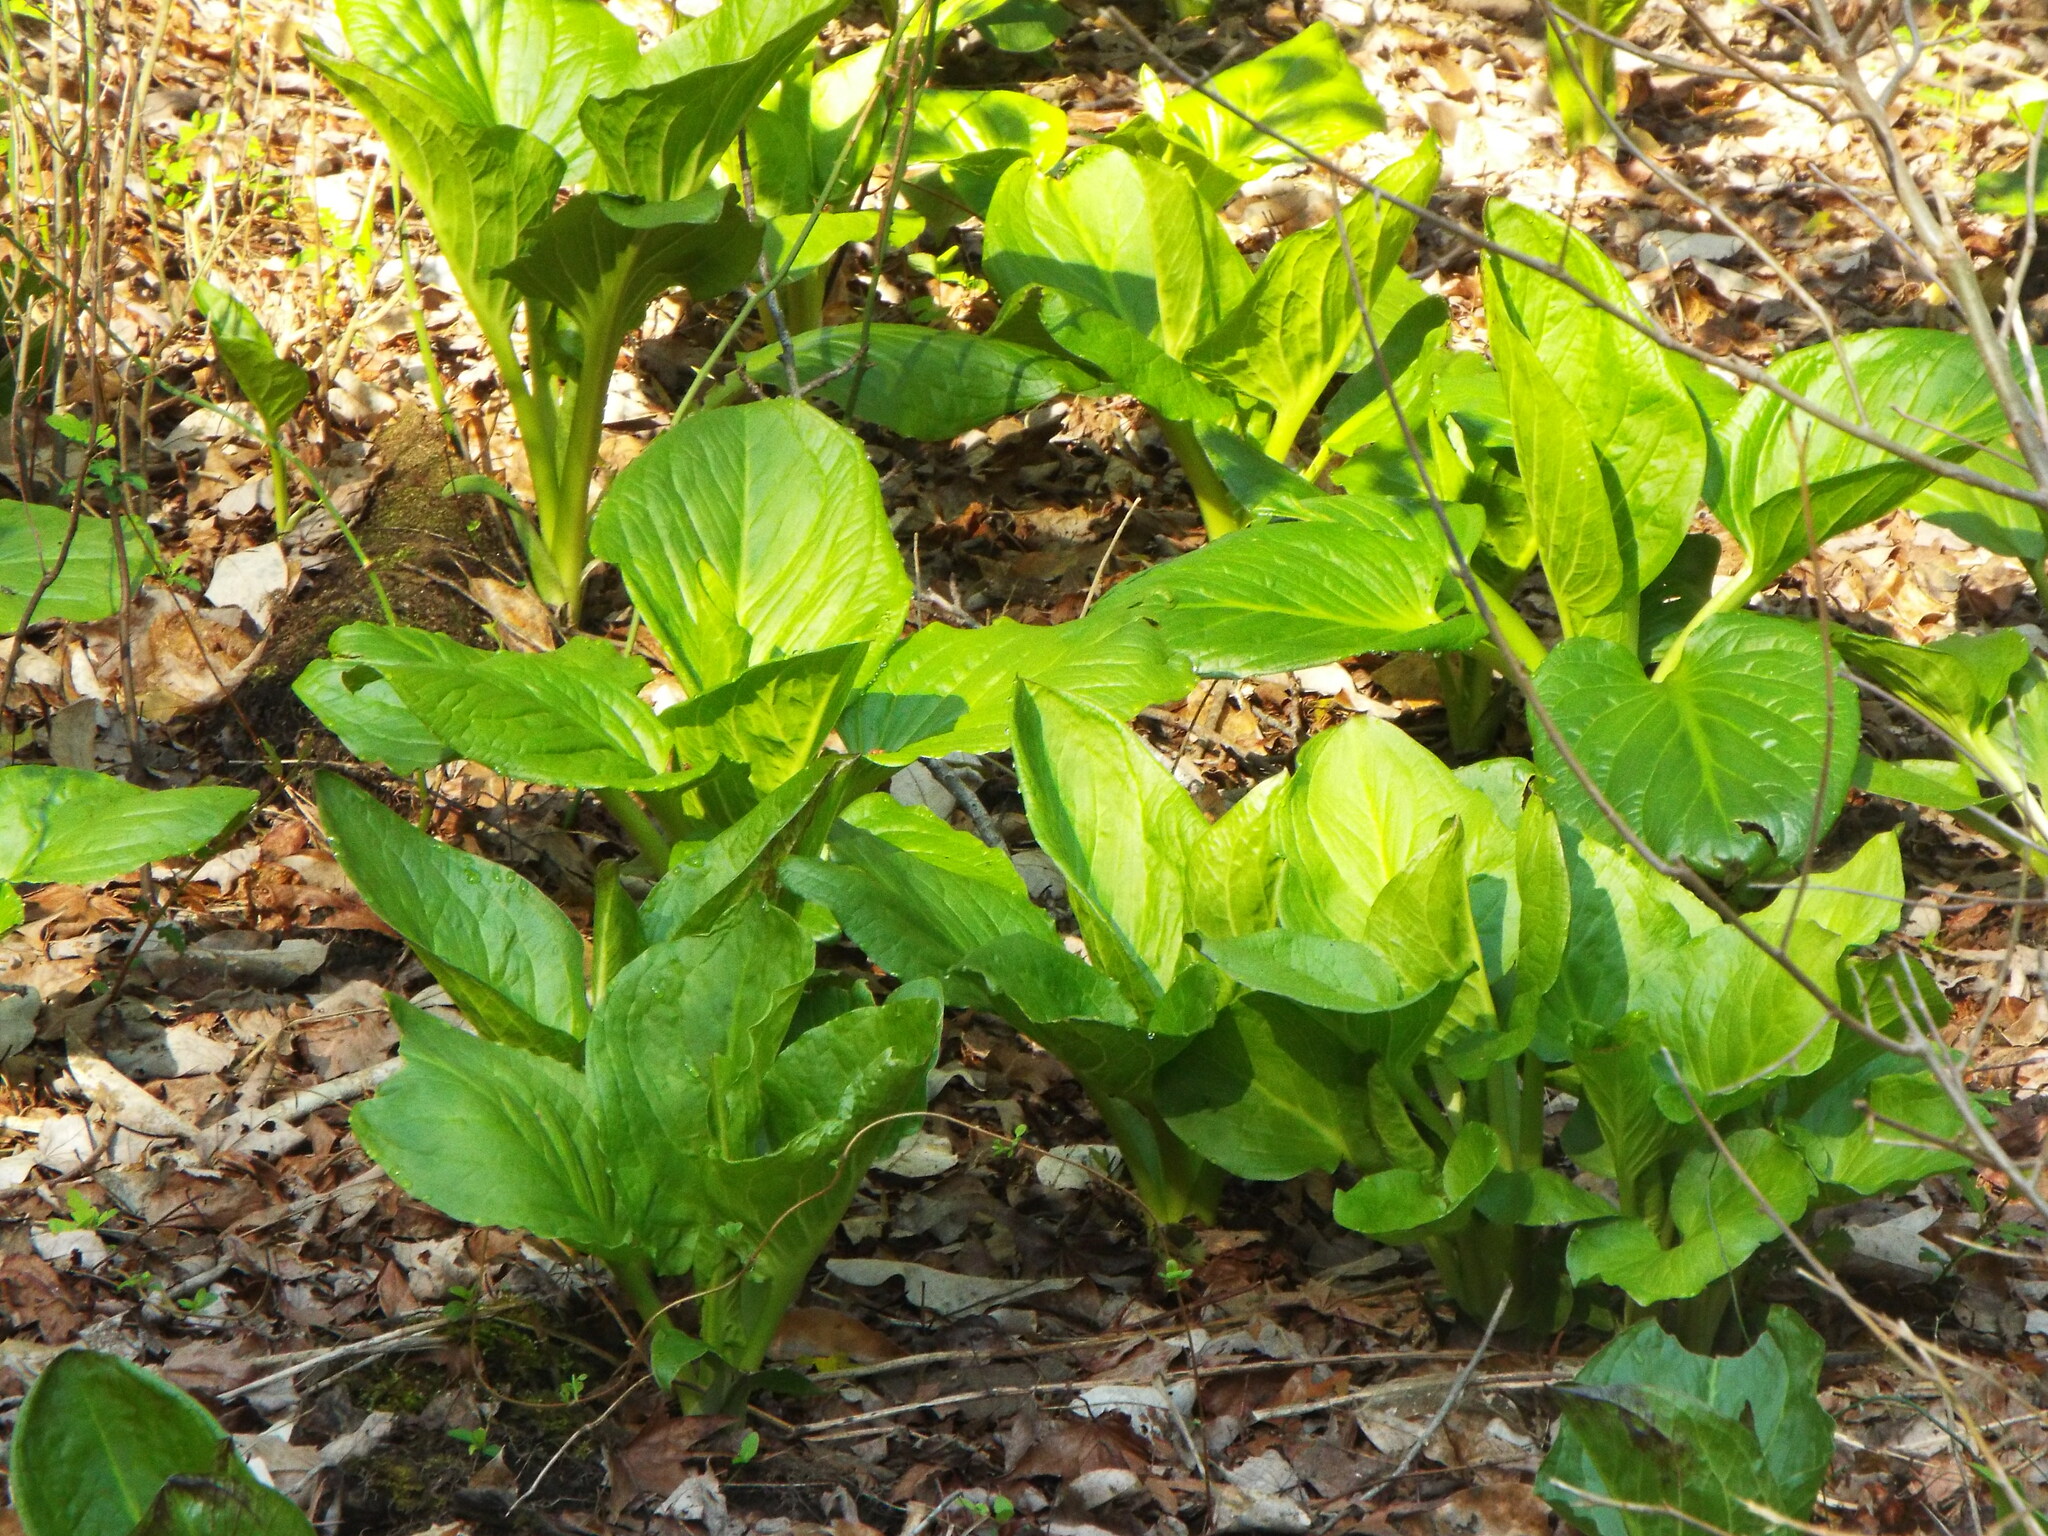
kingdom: Plantae
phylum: Tracheophyta
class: Liliopsida
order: Alismatales
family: Araceae
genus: Symplocarpus
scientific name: Symplocarpus foetidus
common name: Eastern skunk cabbage
